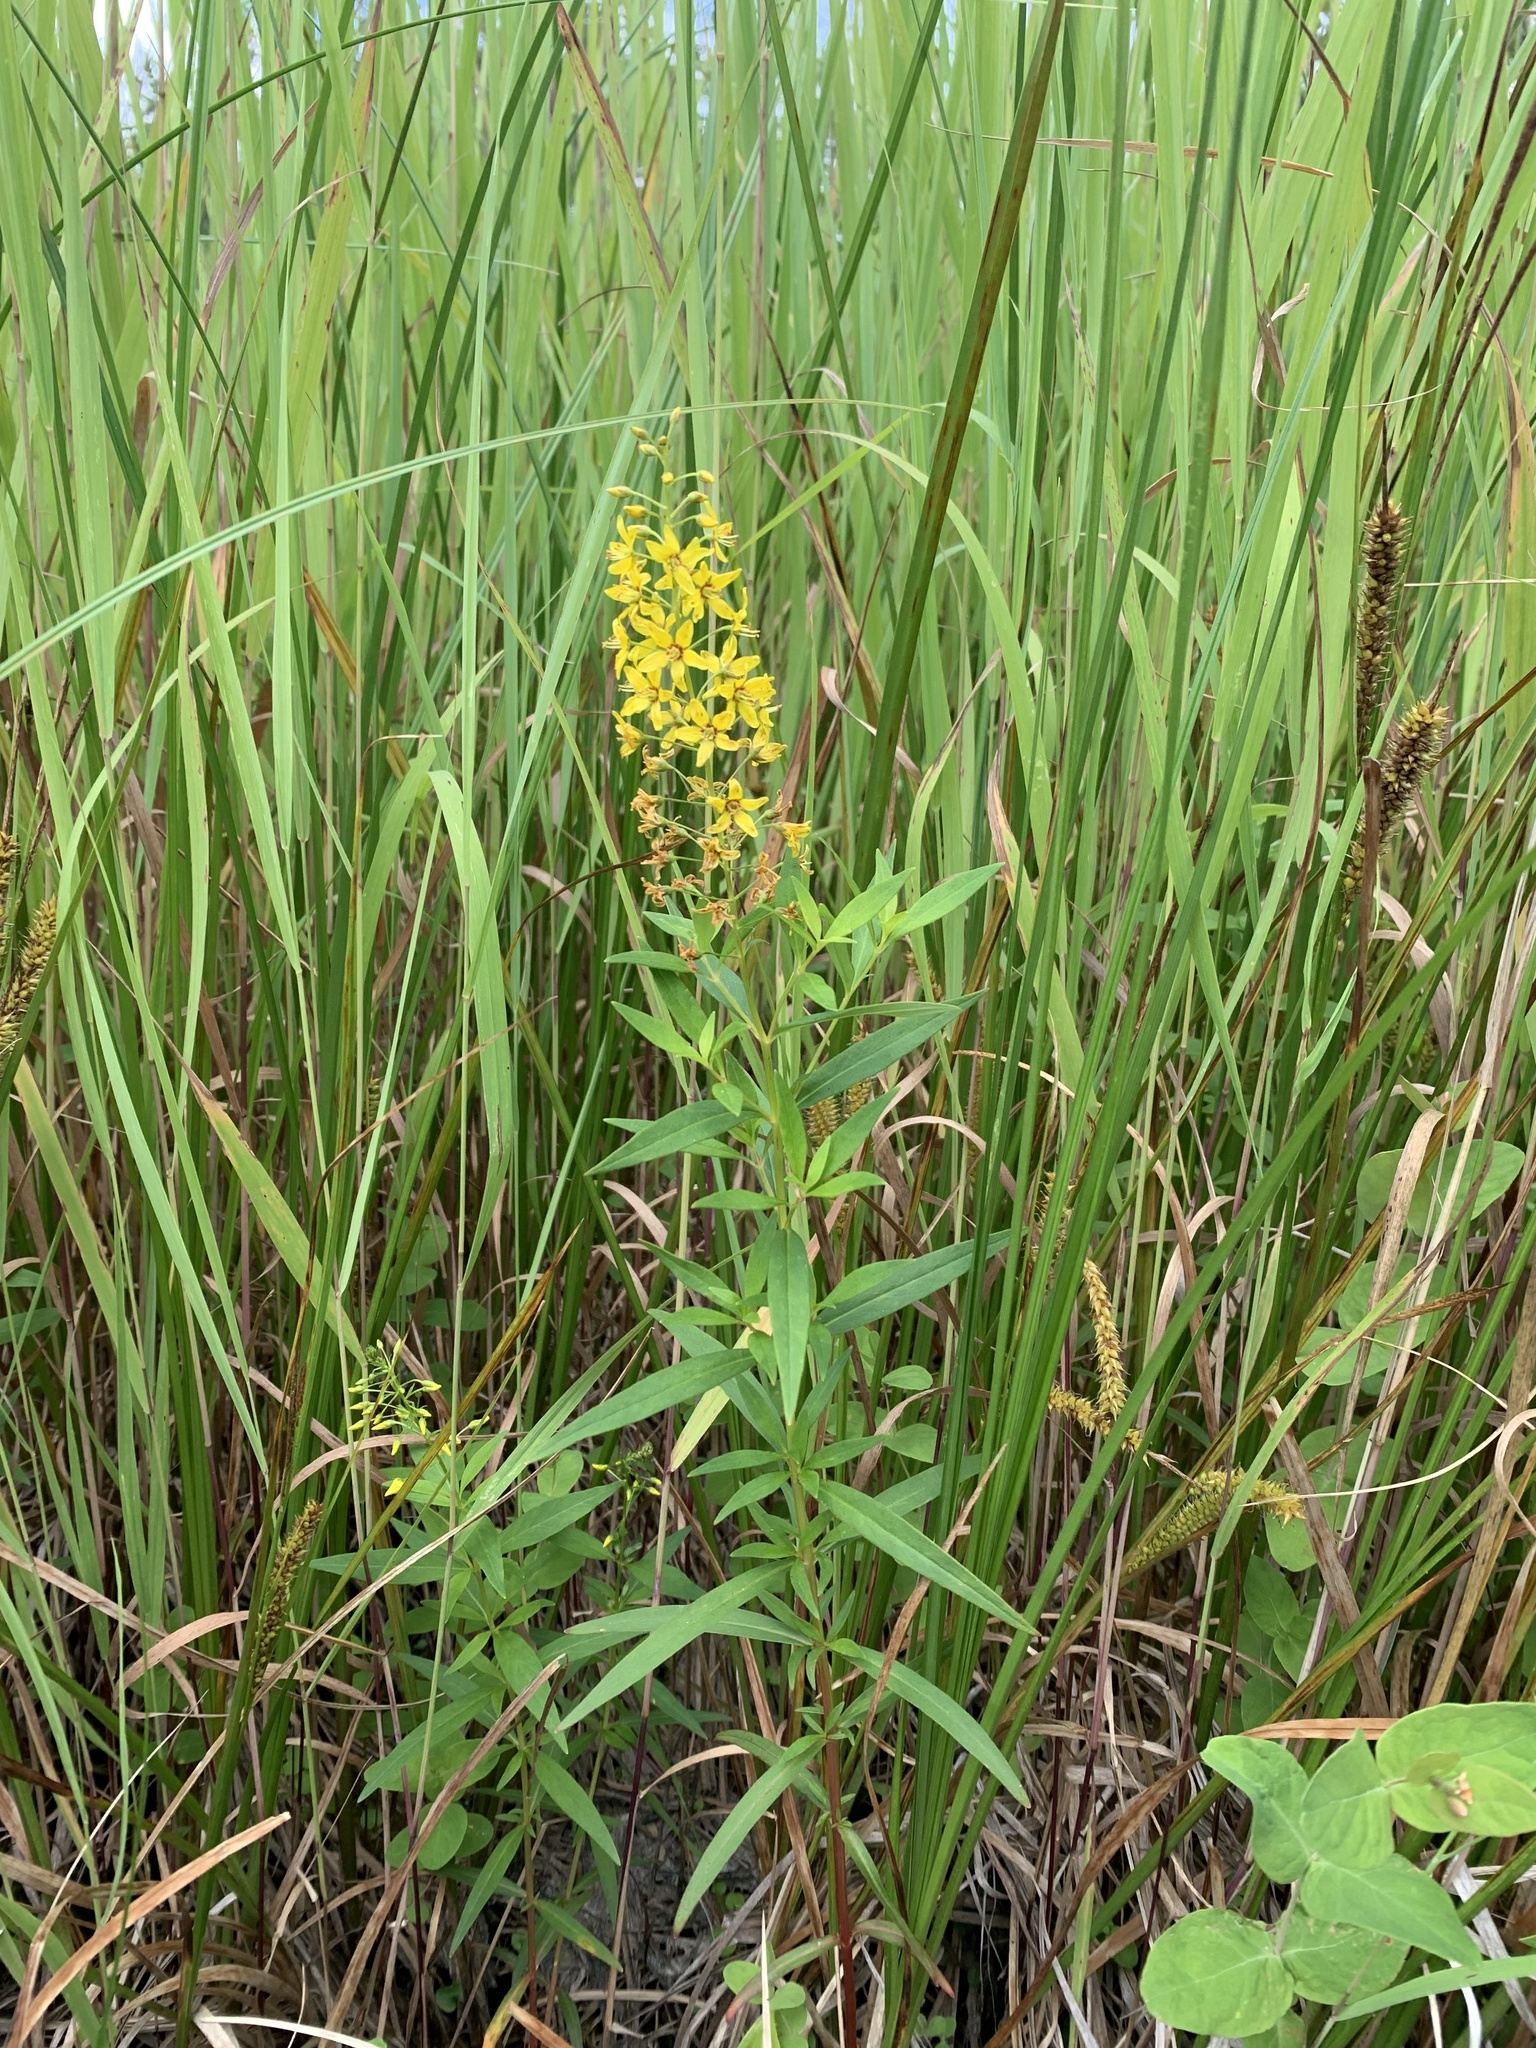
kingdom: Plantae
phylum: Tracheophyta
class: Magnoliopsida
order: Ericales
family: Primulaceae
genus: Lysimachia
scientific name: Lysimachia terrestris
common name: Lake loosestrife
